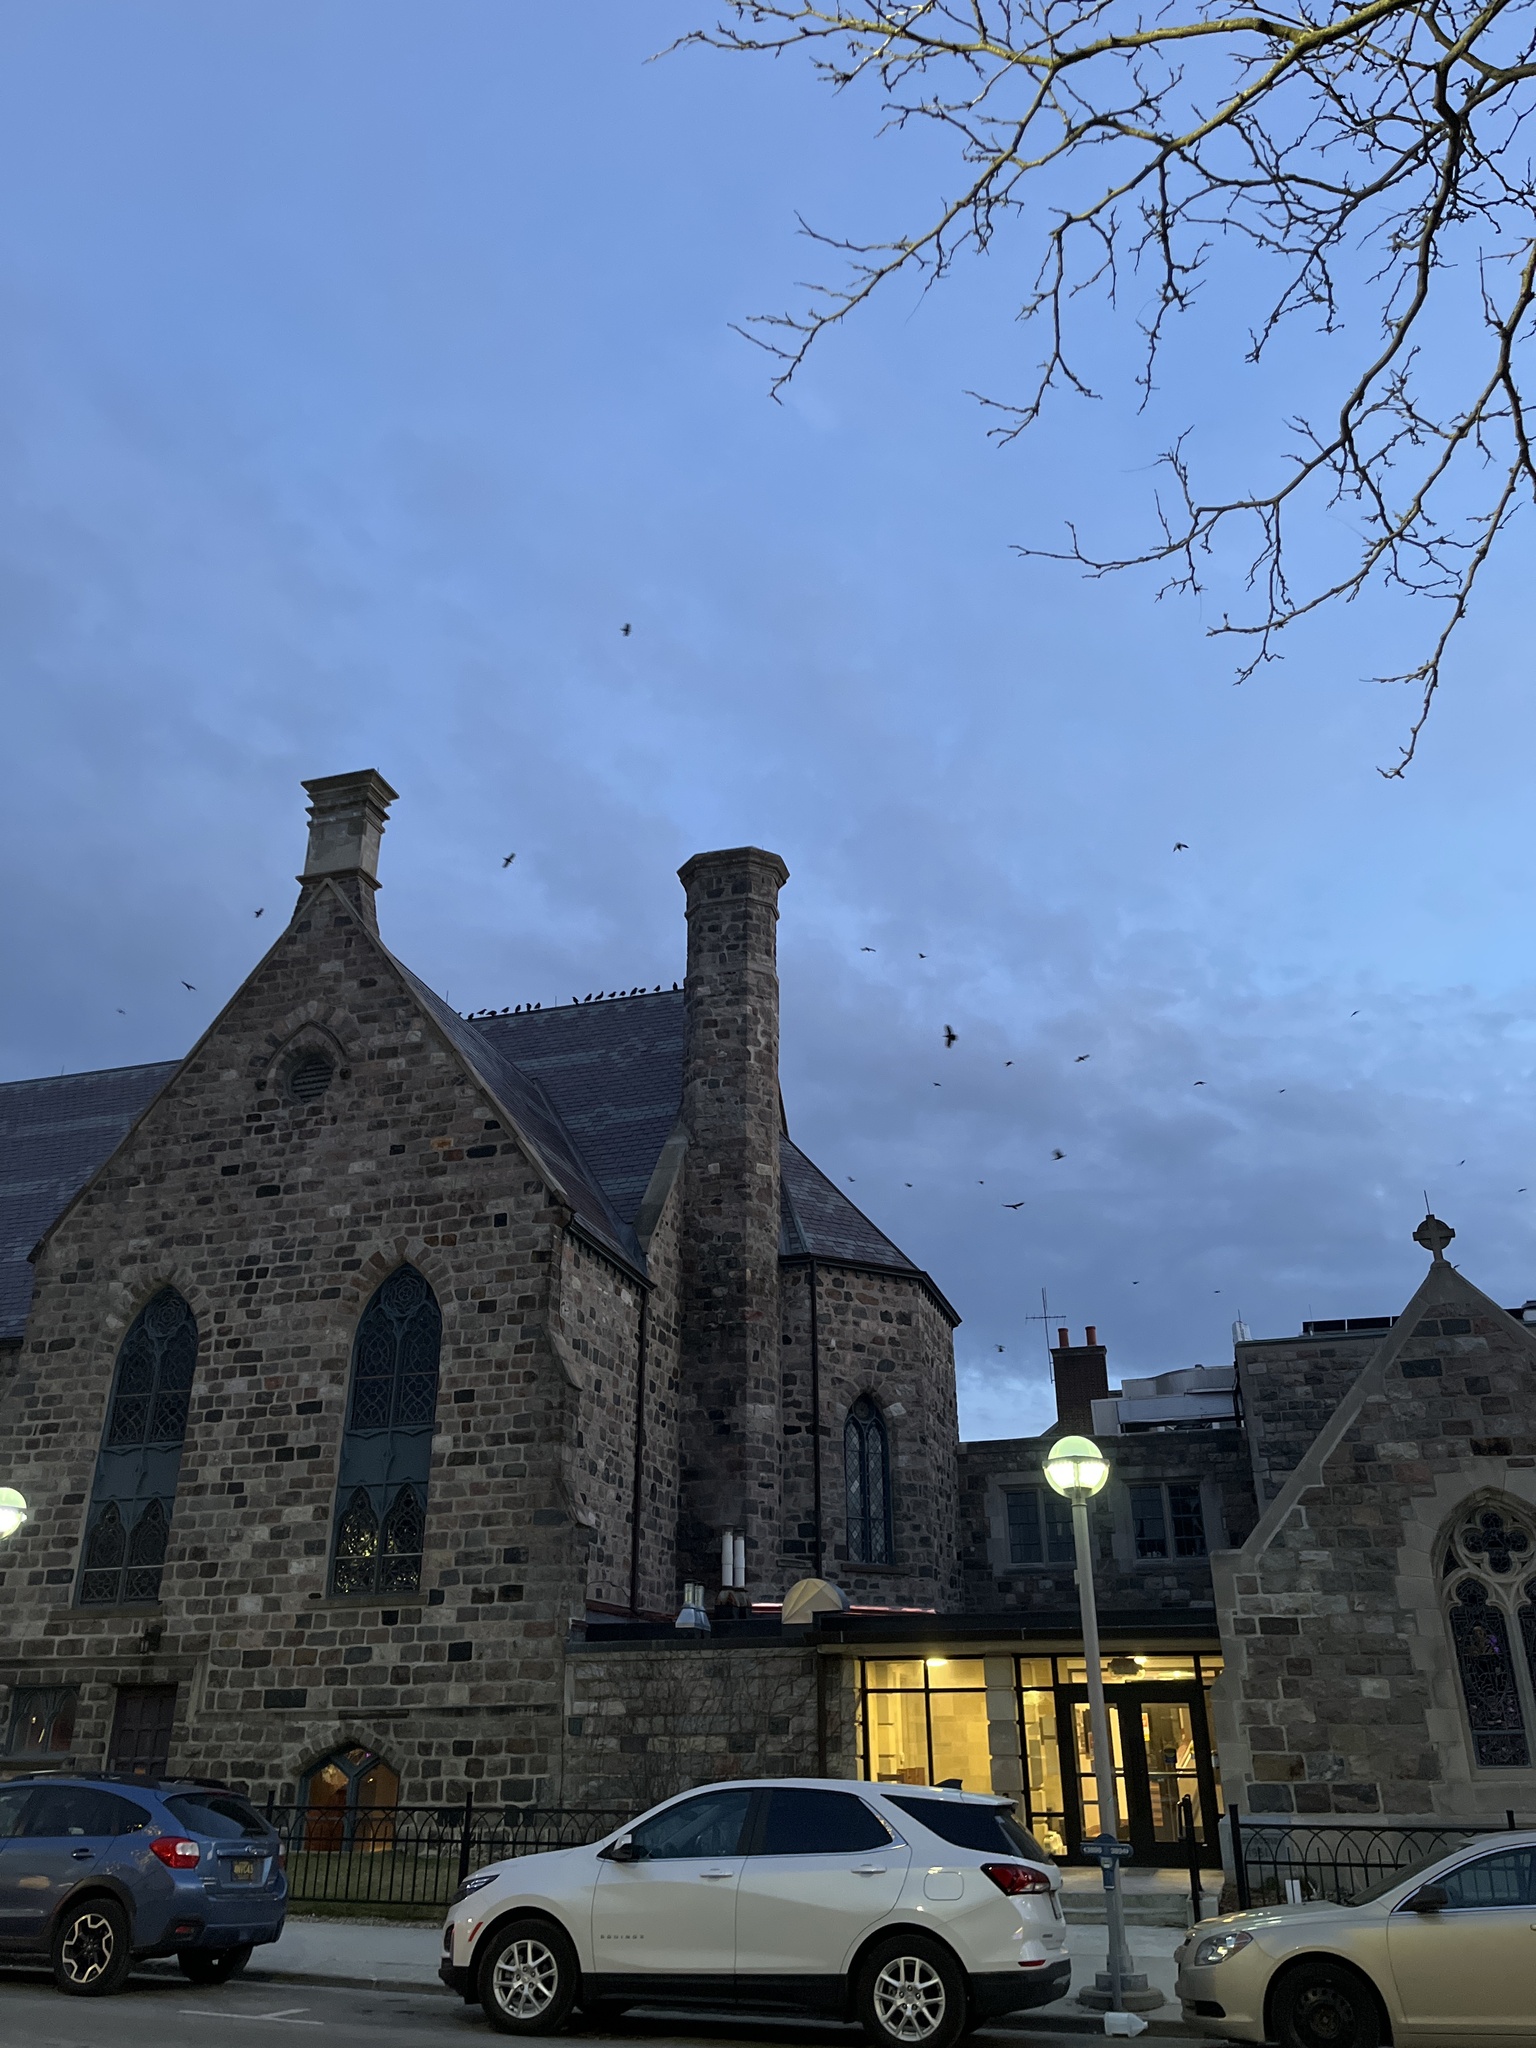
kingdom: Animalia
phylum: Chordata
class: Aves
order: Passeriformes
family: Corvidae
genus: Corvus
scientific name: Corvus brachyrhynchos
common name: American crow
